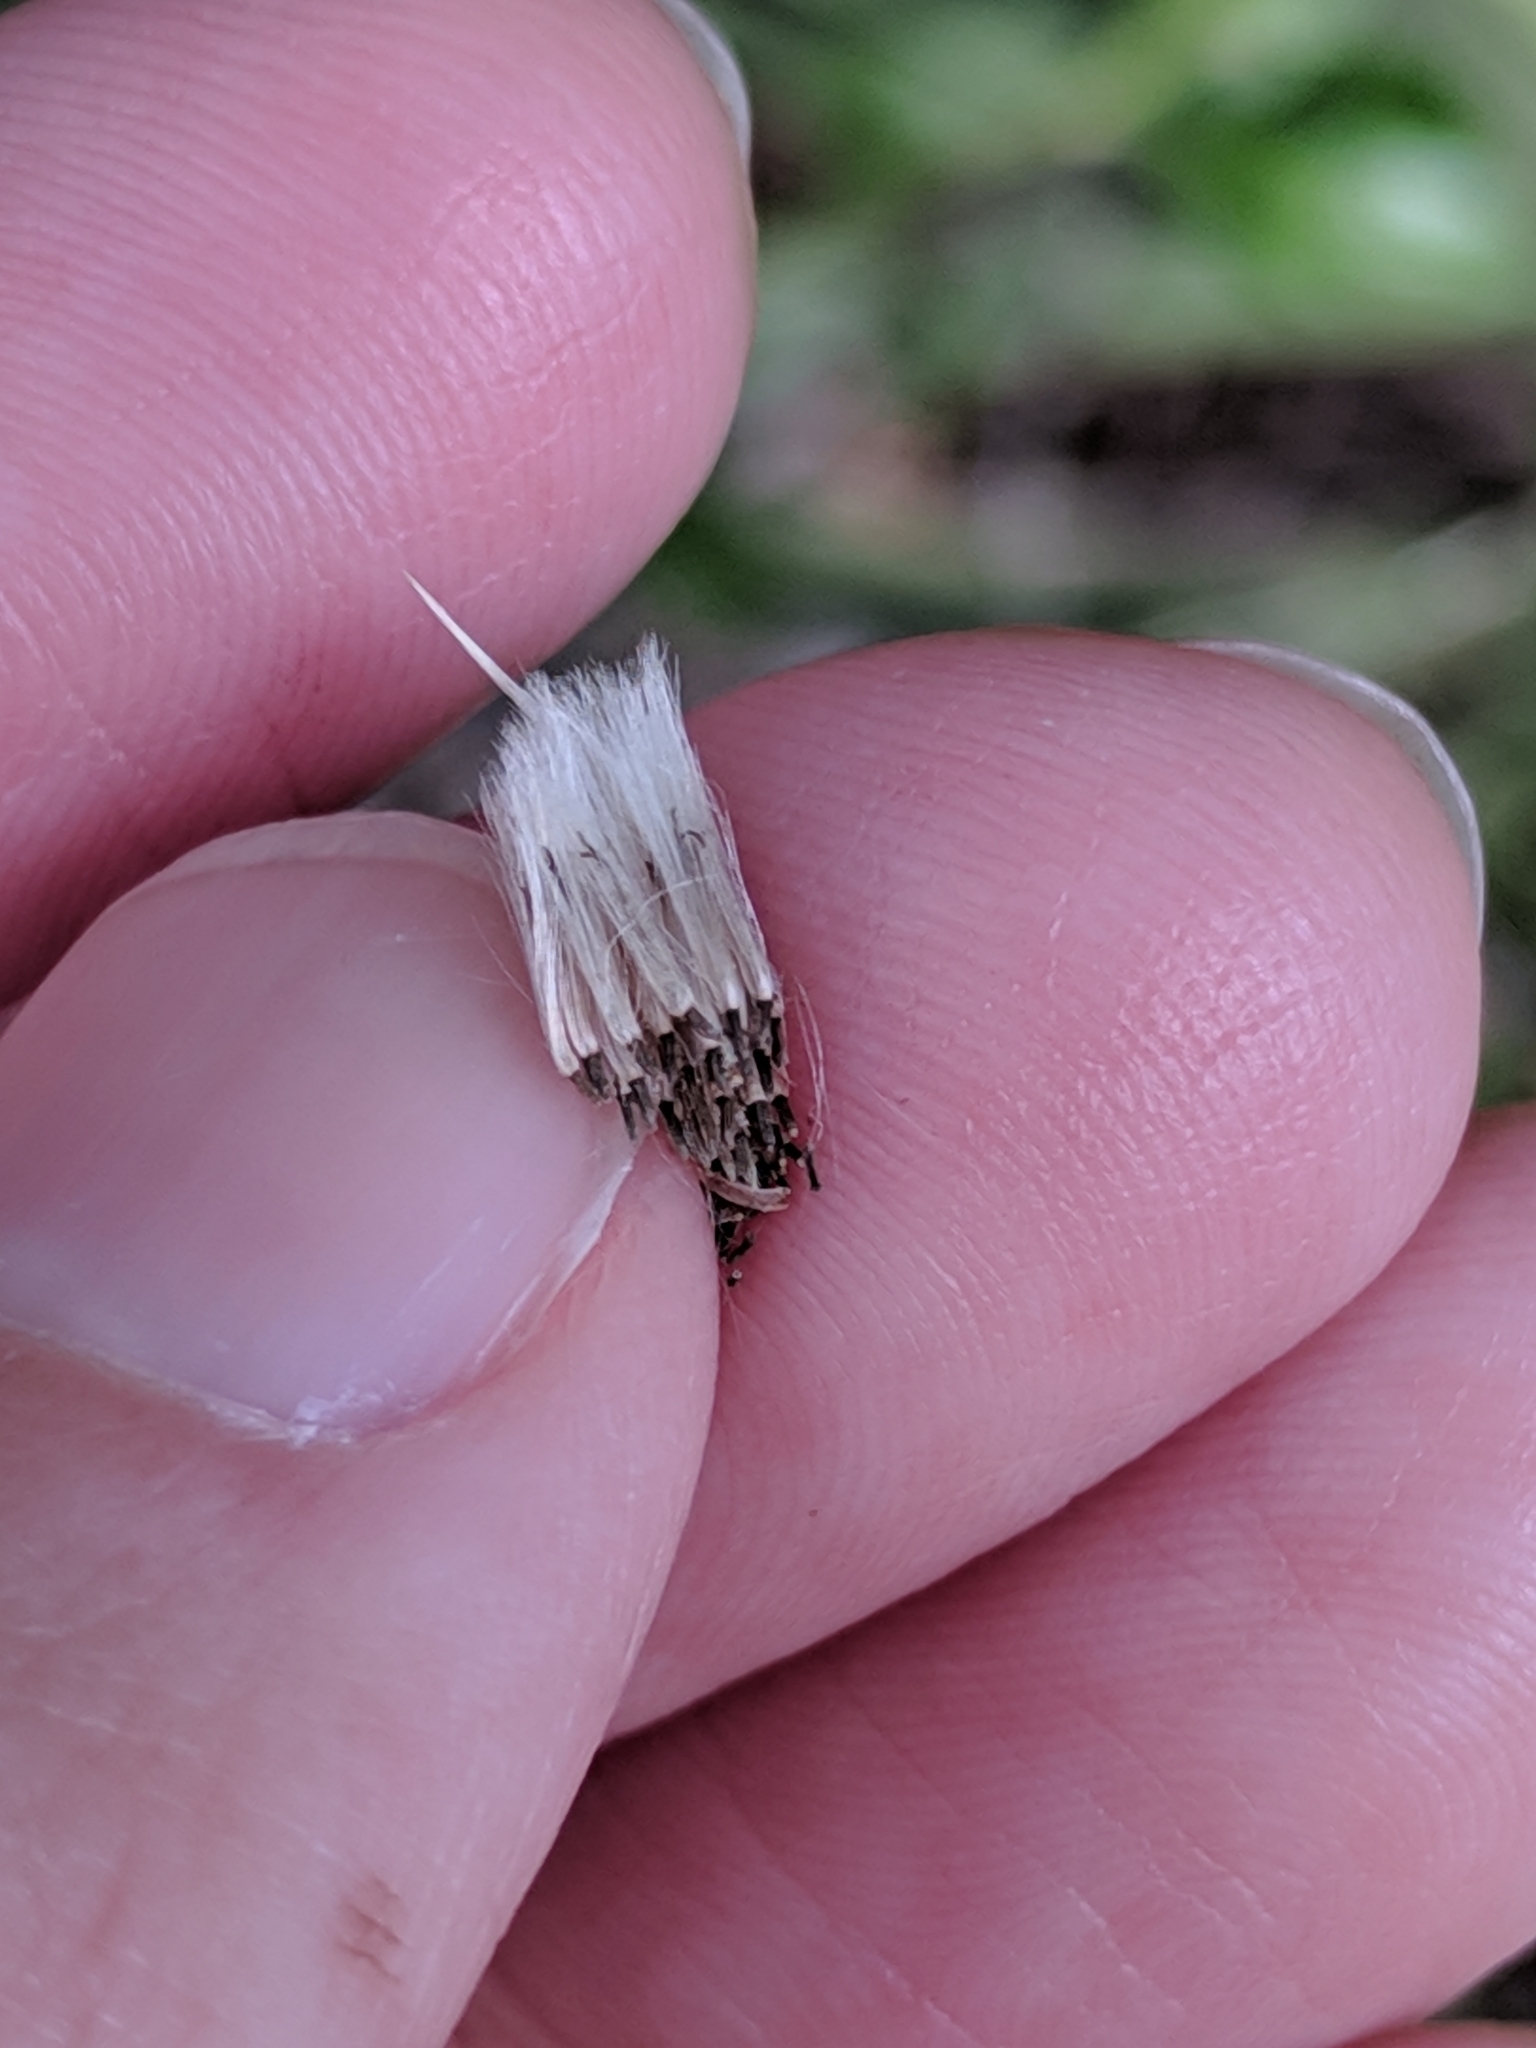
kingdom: Plantae
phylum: Tracheophyta
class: Magnoliopsida
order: Asterales
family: Asteraceae
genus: Baccharis
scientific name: Baccharis halimifolia
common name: Eastern baccharis
